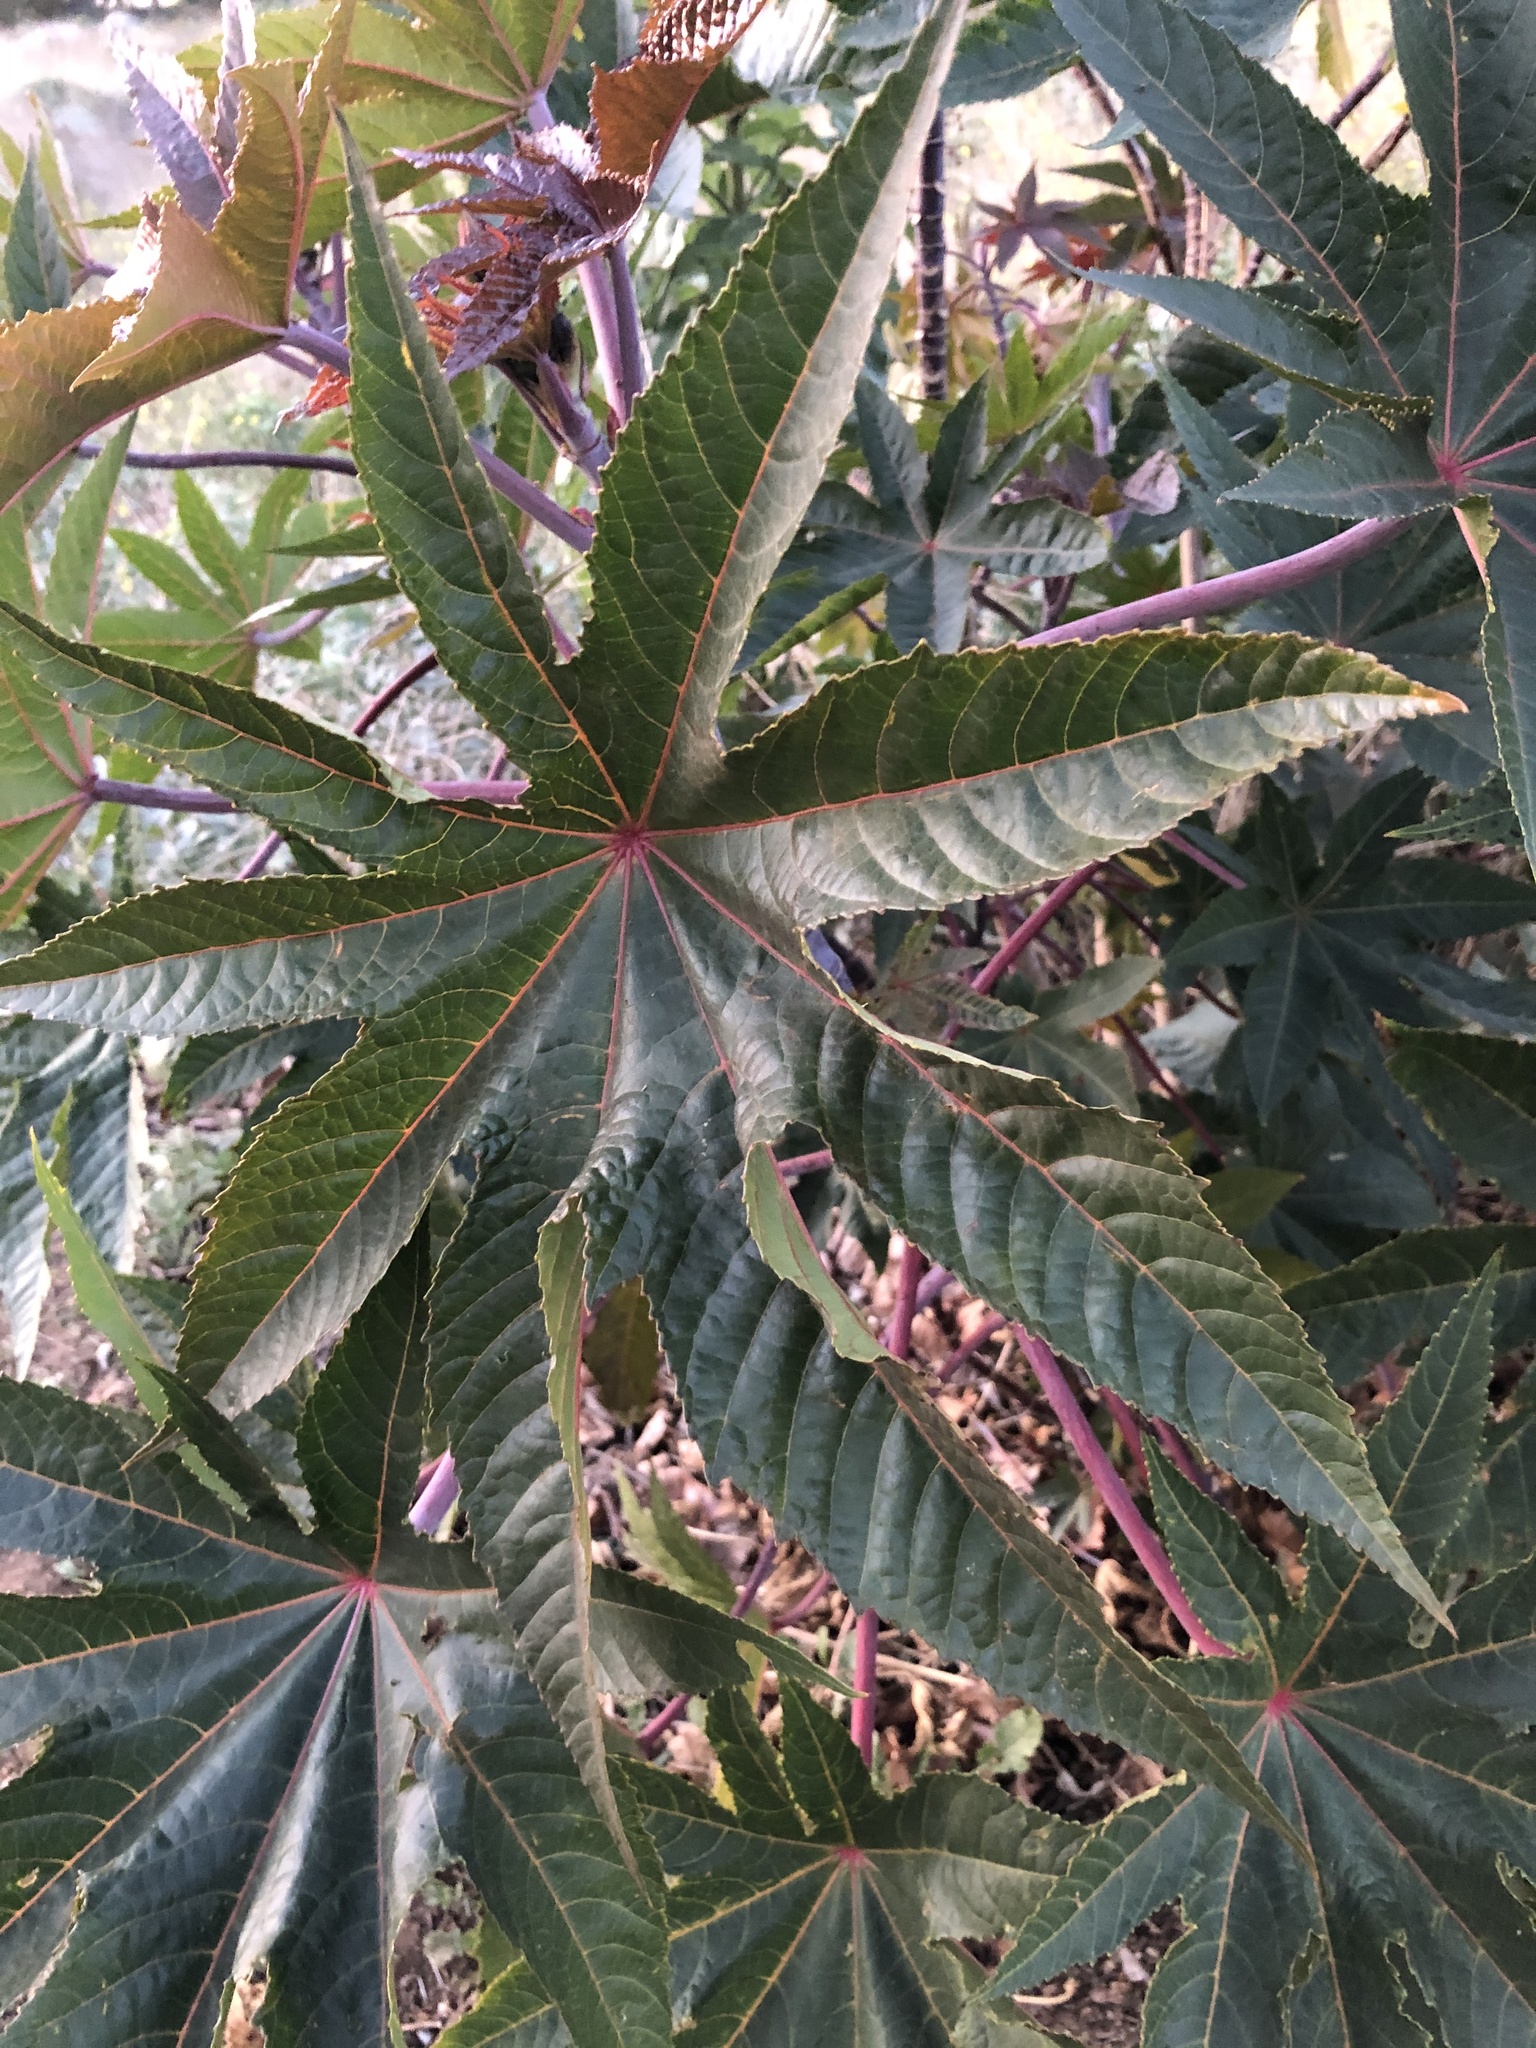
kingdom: Plantae
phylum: Tracheophyta
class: Magnoliopsida
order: Malpighiales
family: Euphorbiaceae
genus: Ricinus
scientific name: Ricinus communis
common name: Castor-oil-plant
